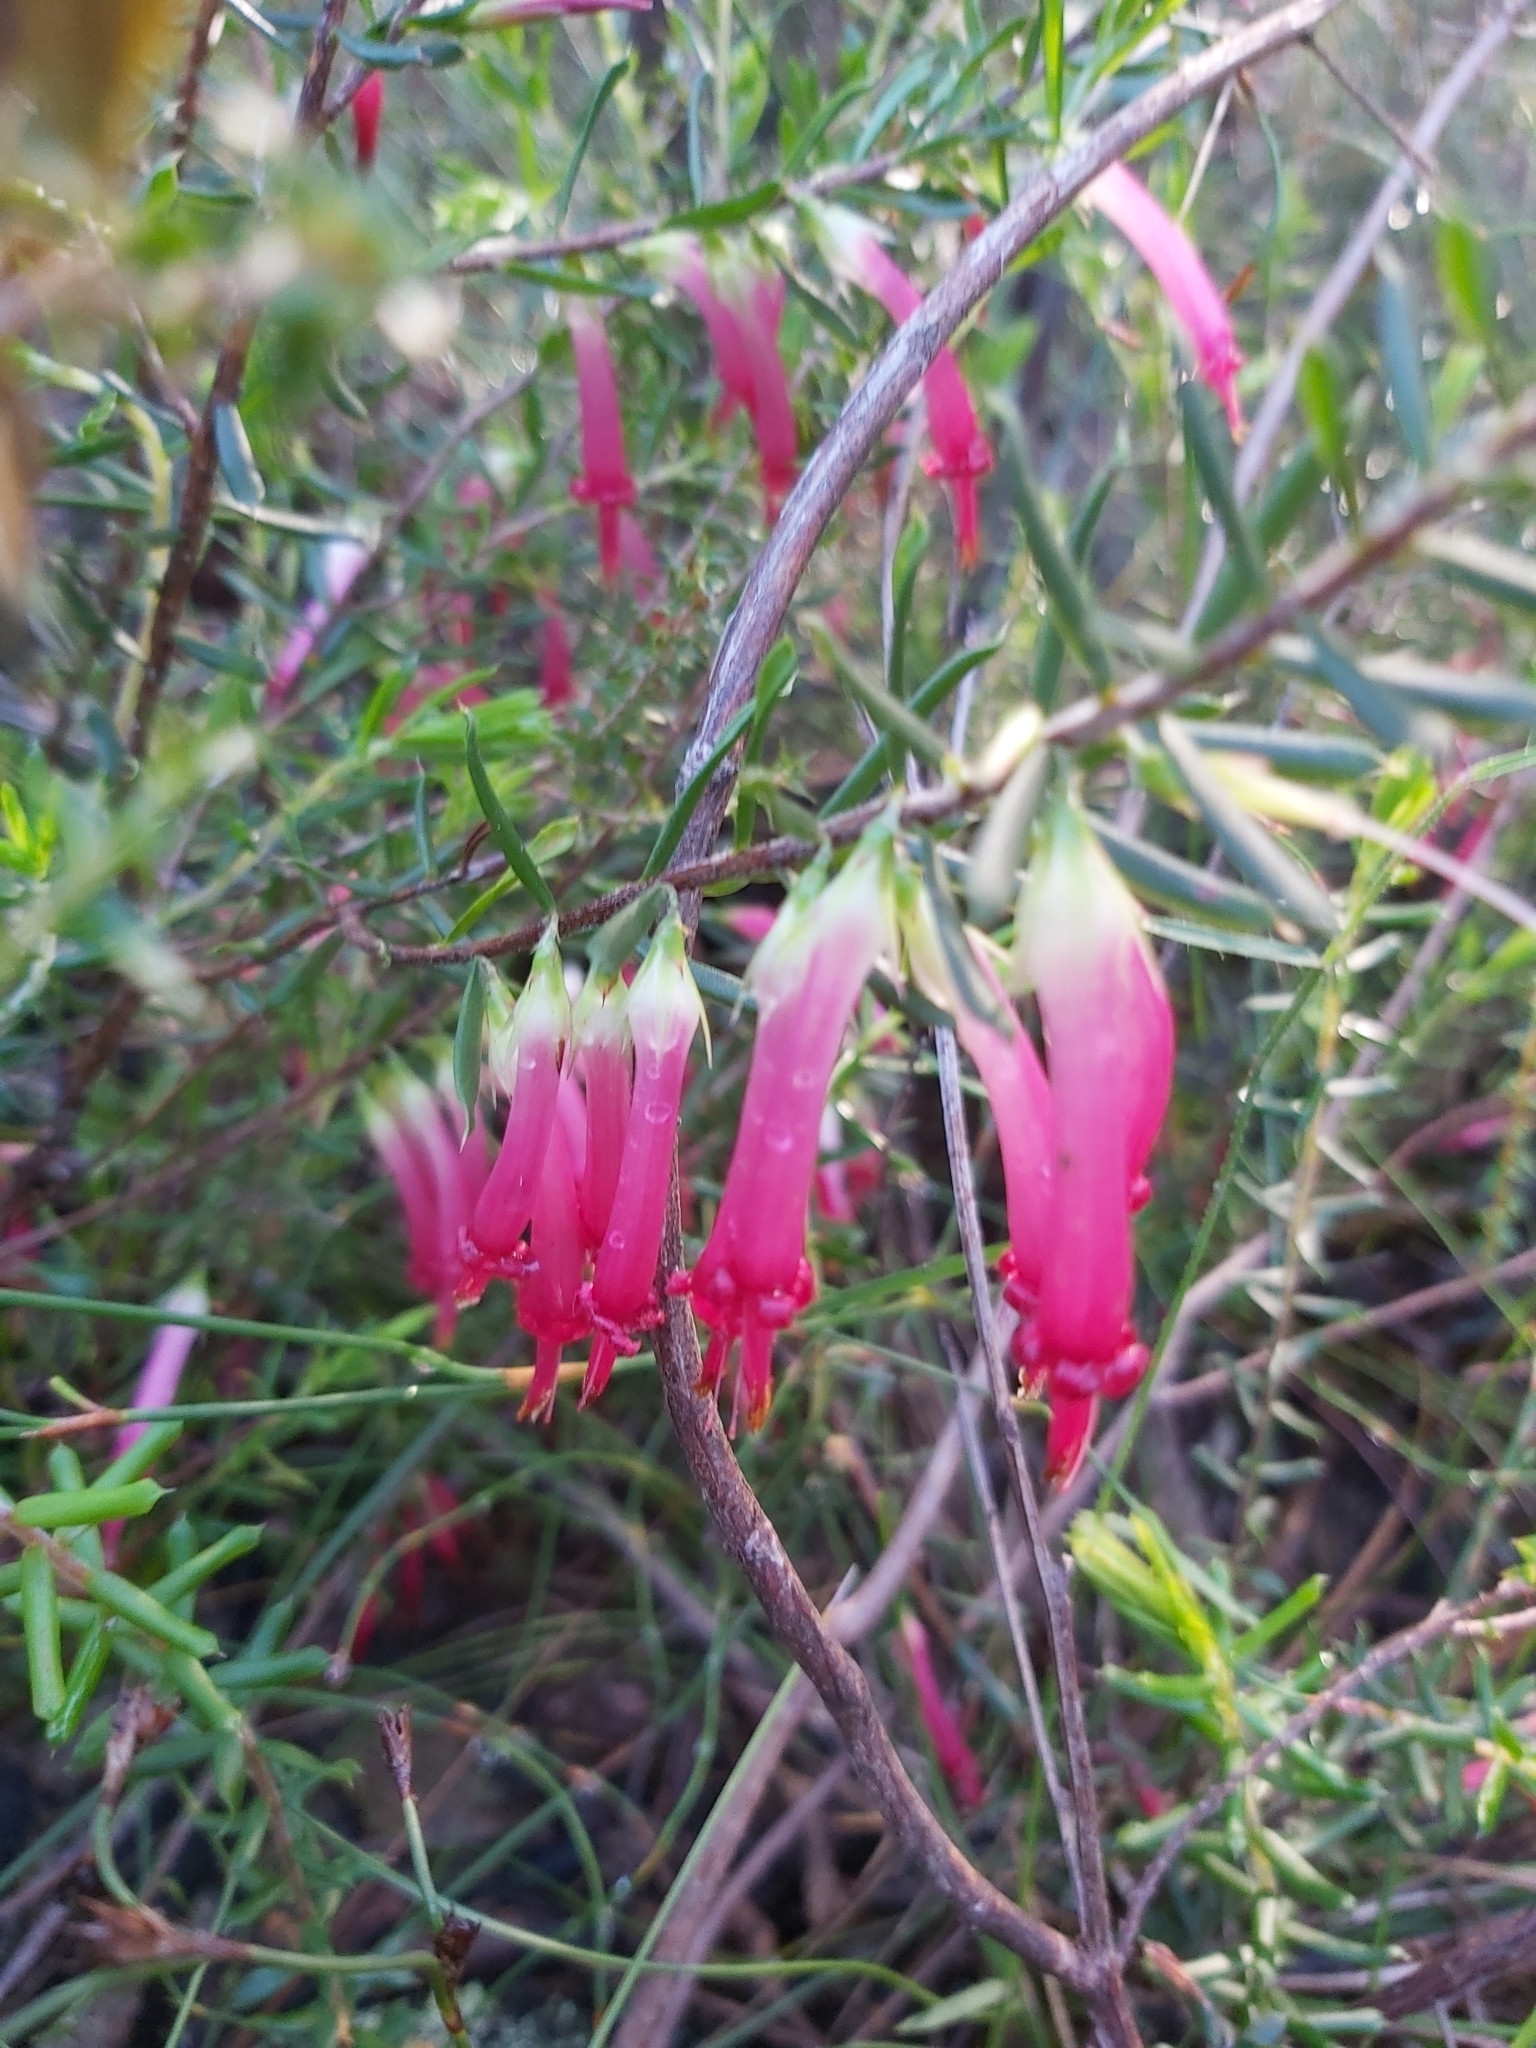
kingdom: Plantae
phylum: Tracheophyta
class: Magnoliopsida
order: Ericales
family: Ericaceae
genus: Styphelia
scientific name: Styphelia tubiflora
